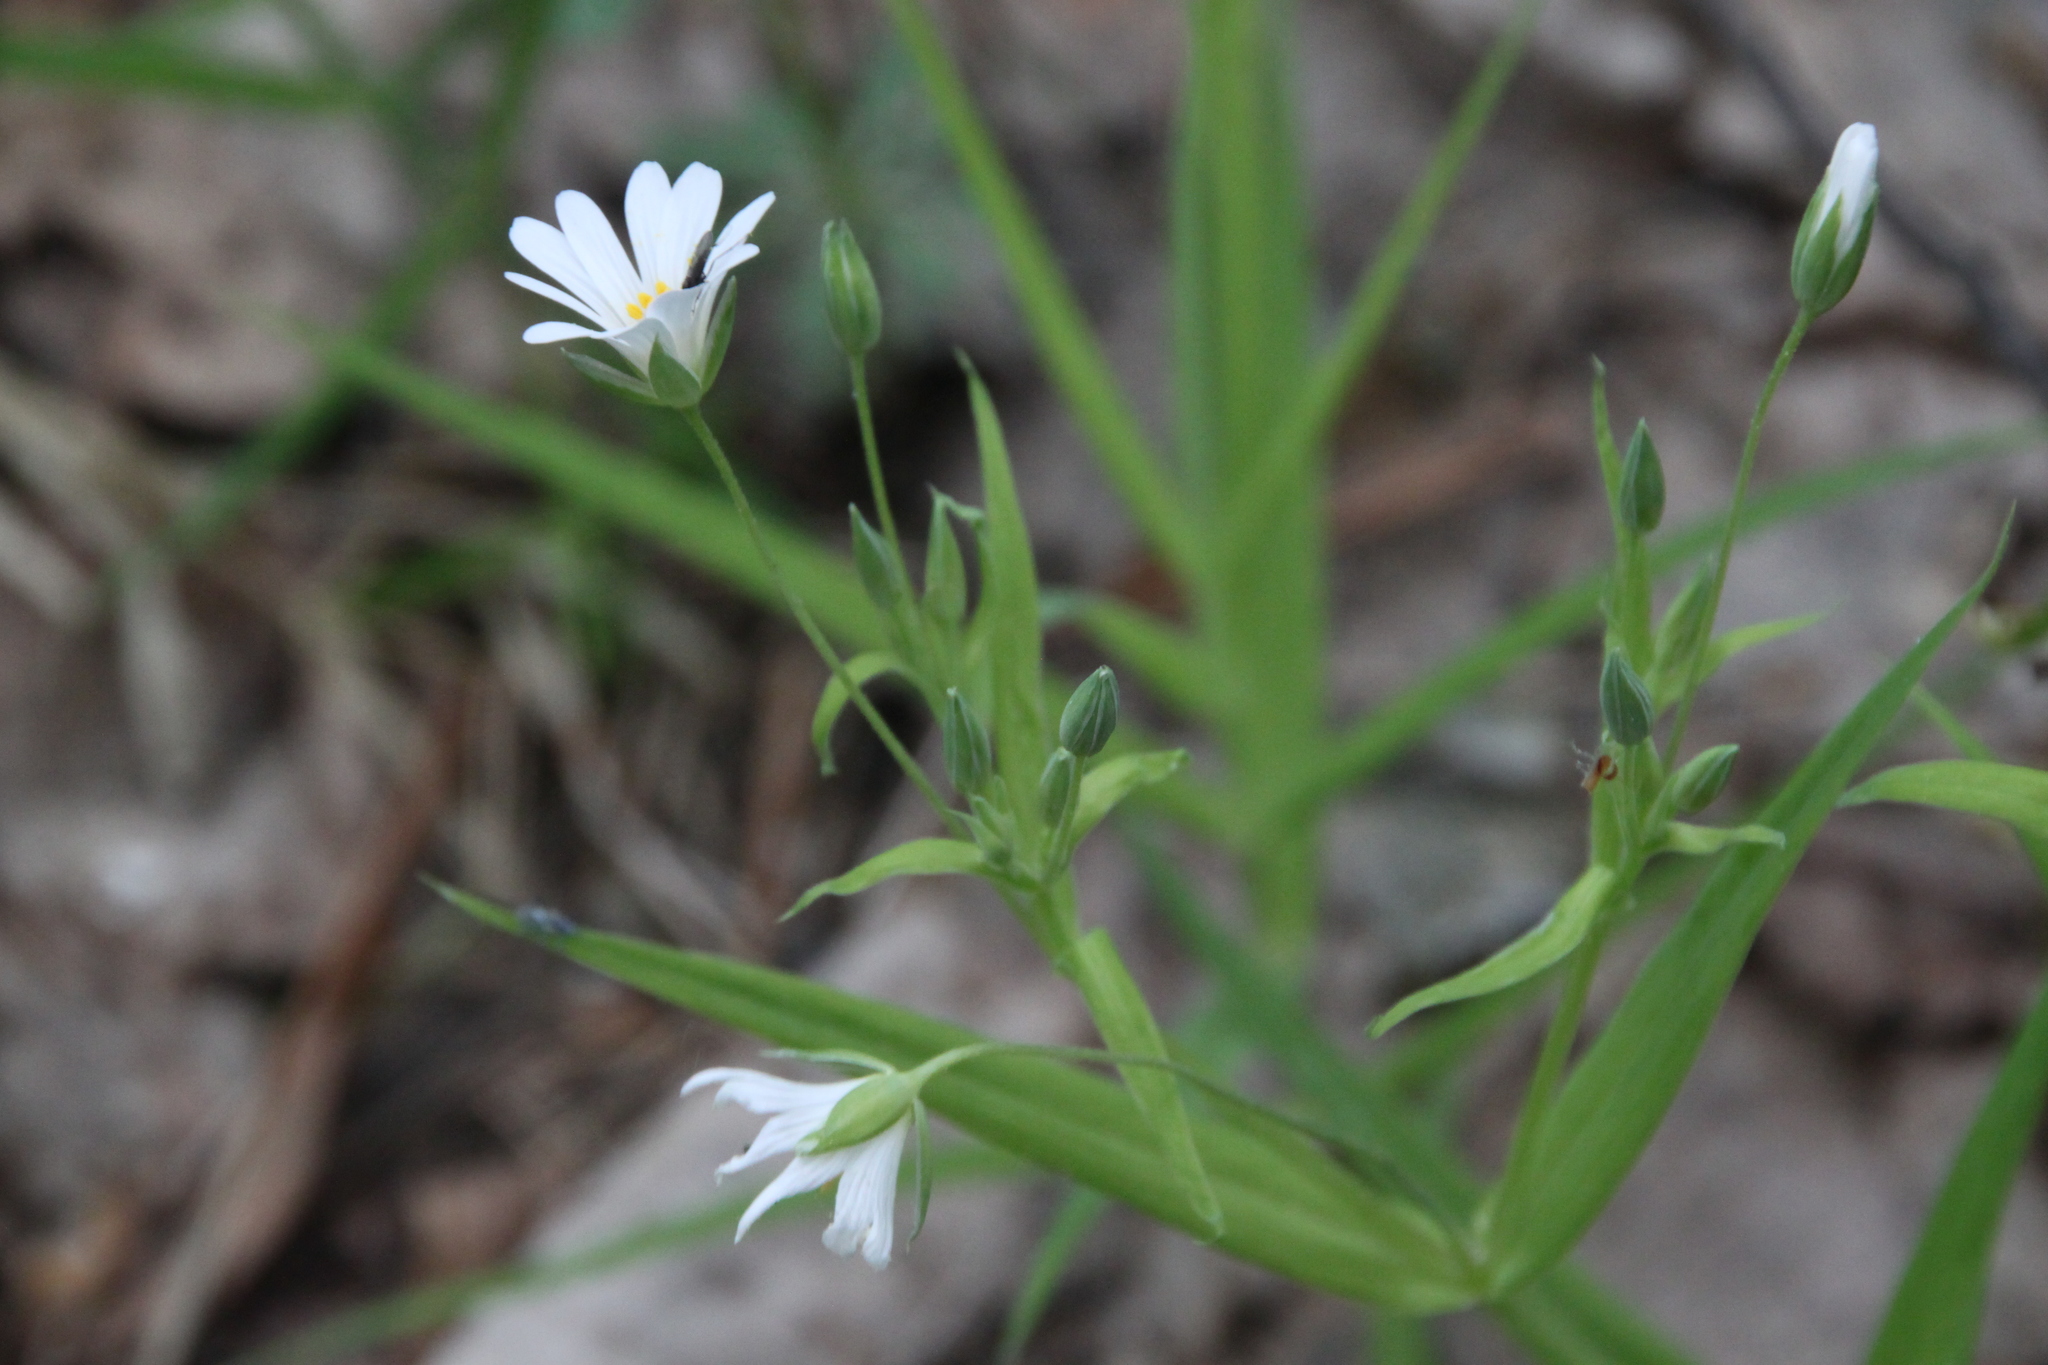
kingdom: Plantae
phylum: Tracheophyta
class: Magnoliopsida
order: Caryophyllales
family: Caryophyllaceae
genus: Rabelera
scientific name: Rabelera holostea
